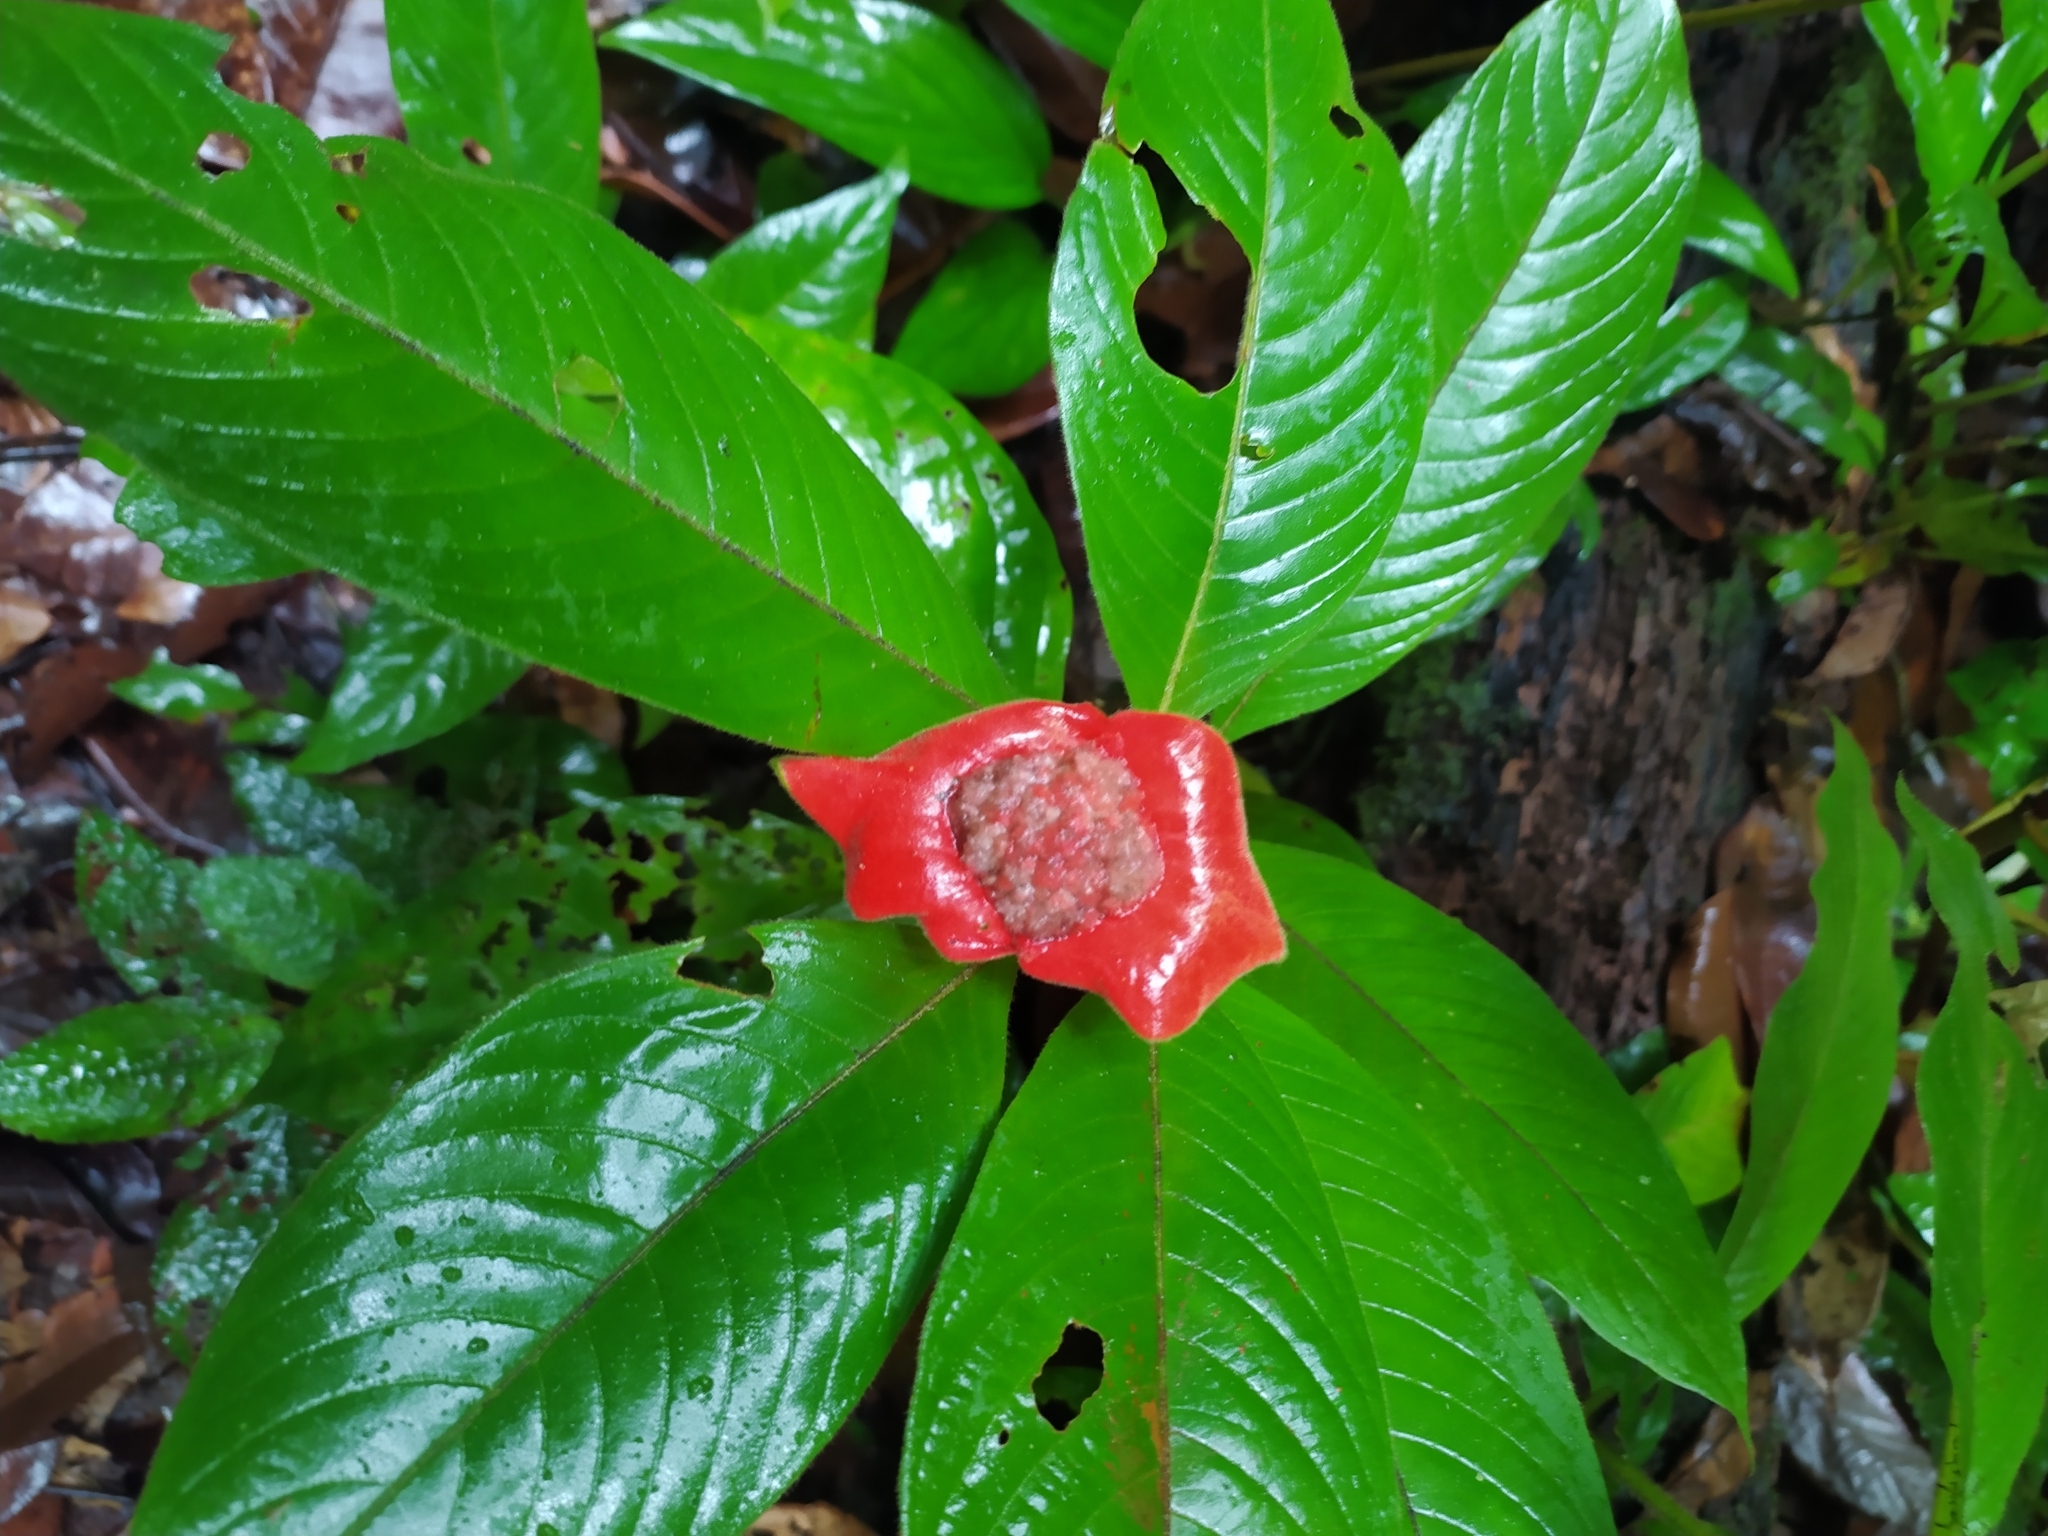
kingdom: Plantae
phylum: Tracheophyta
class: Magnoliopsida
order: Gentianales
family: Rubiaceae
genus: Palicourea
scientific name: Palicourea tomentosa
